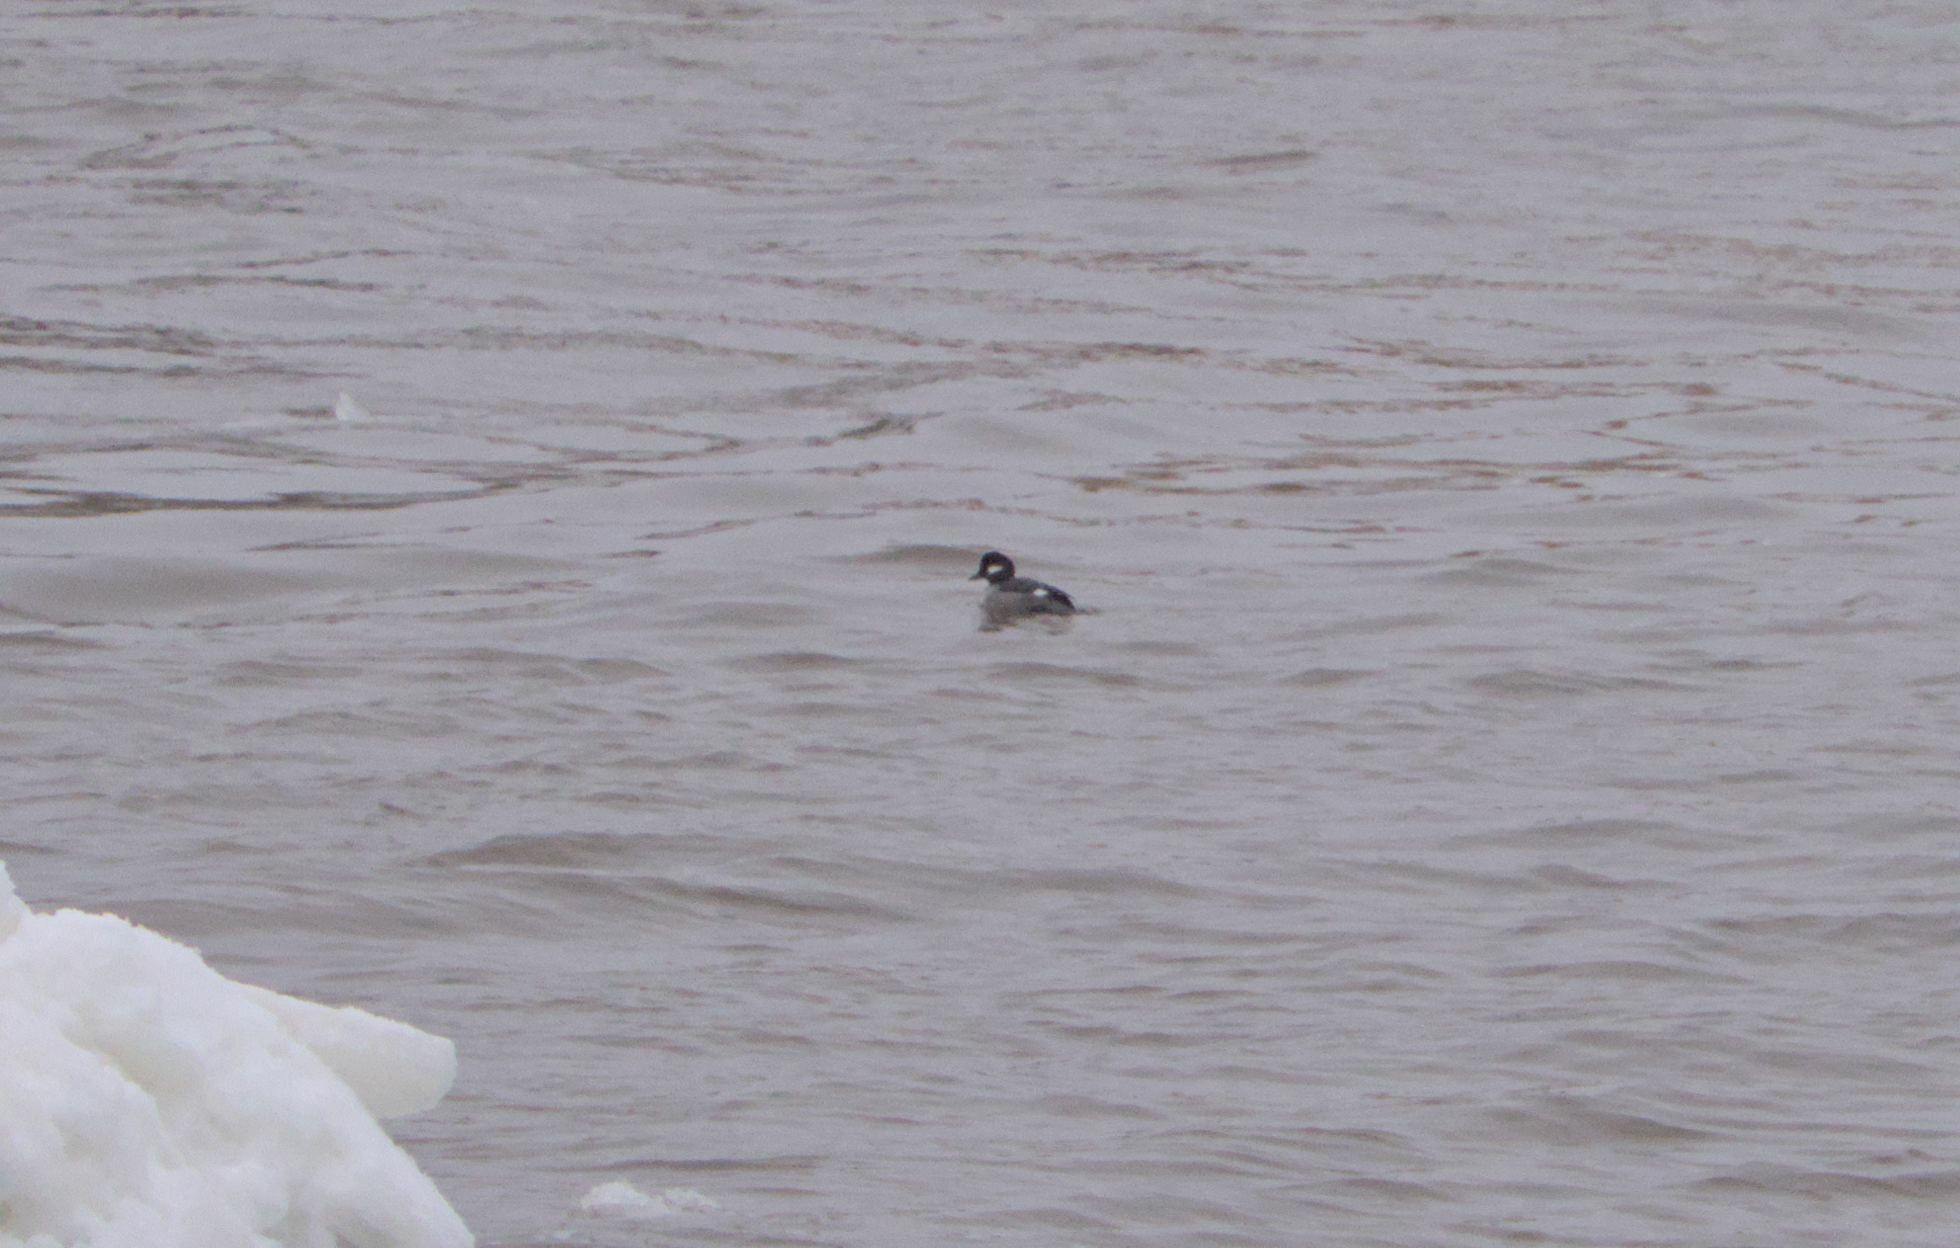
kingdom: Animalia
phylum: Chordata
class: Aves
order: Anseriformes
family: Anatidae
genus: Bucephala
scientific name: Bucephala albeola
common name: Bufflehead
